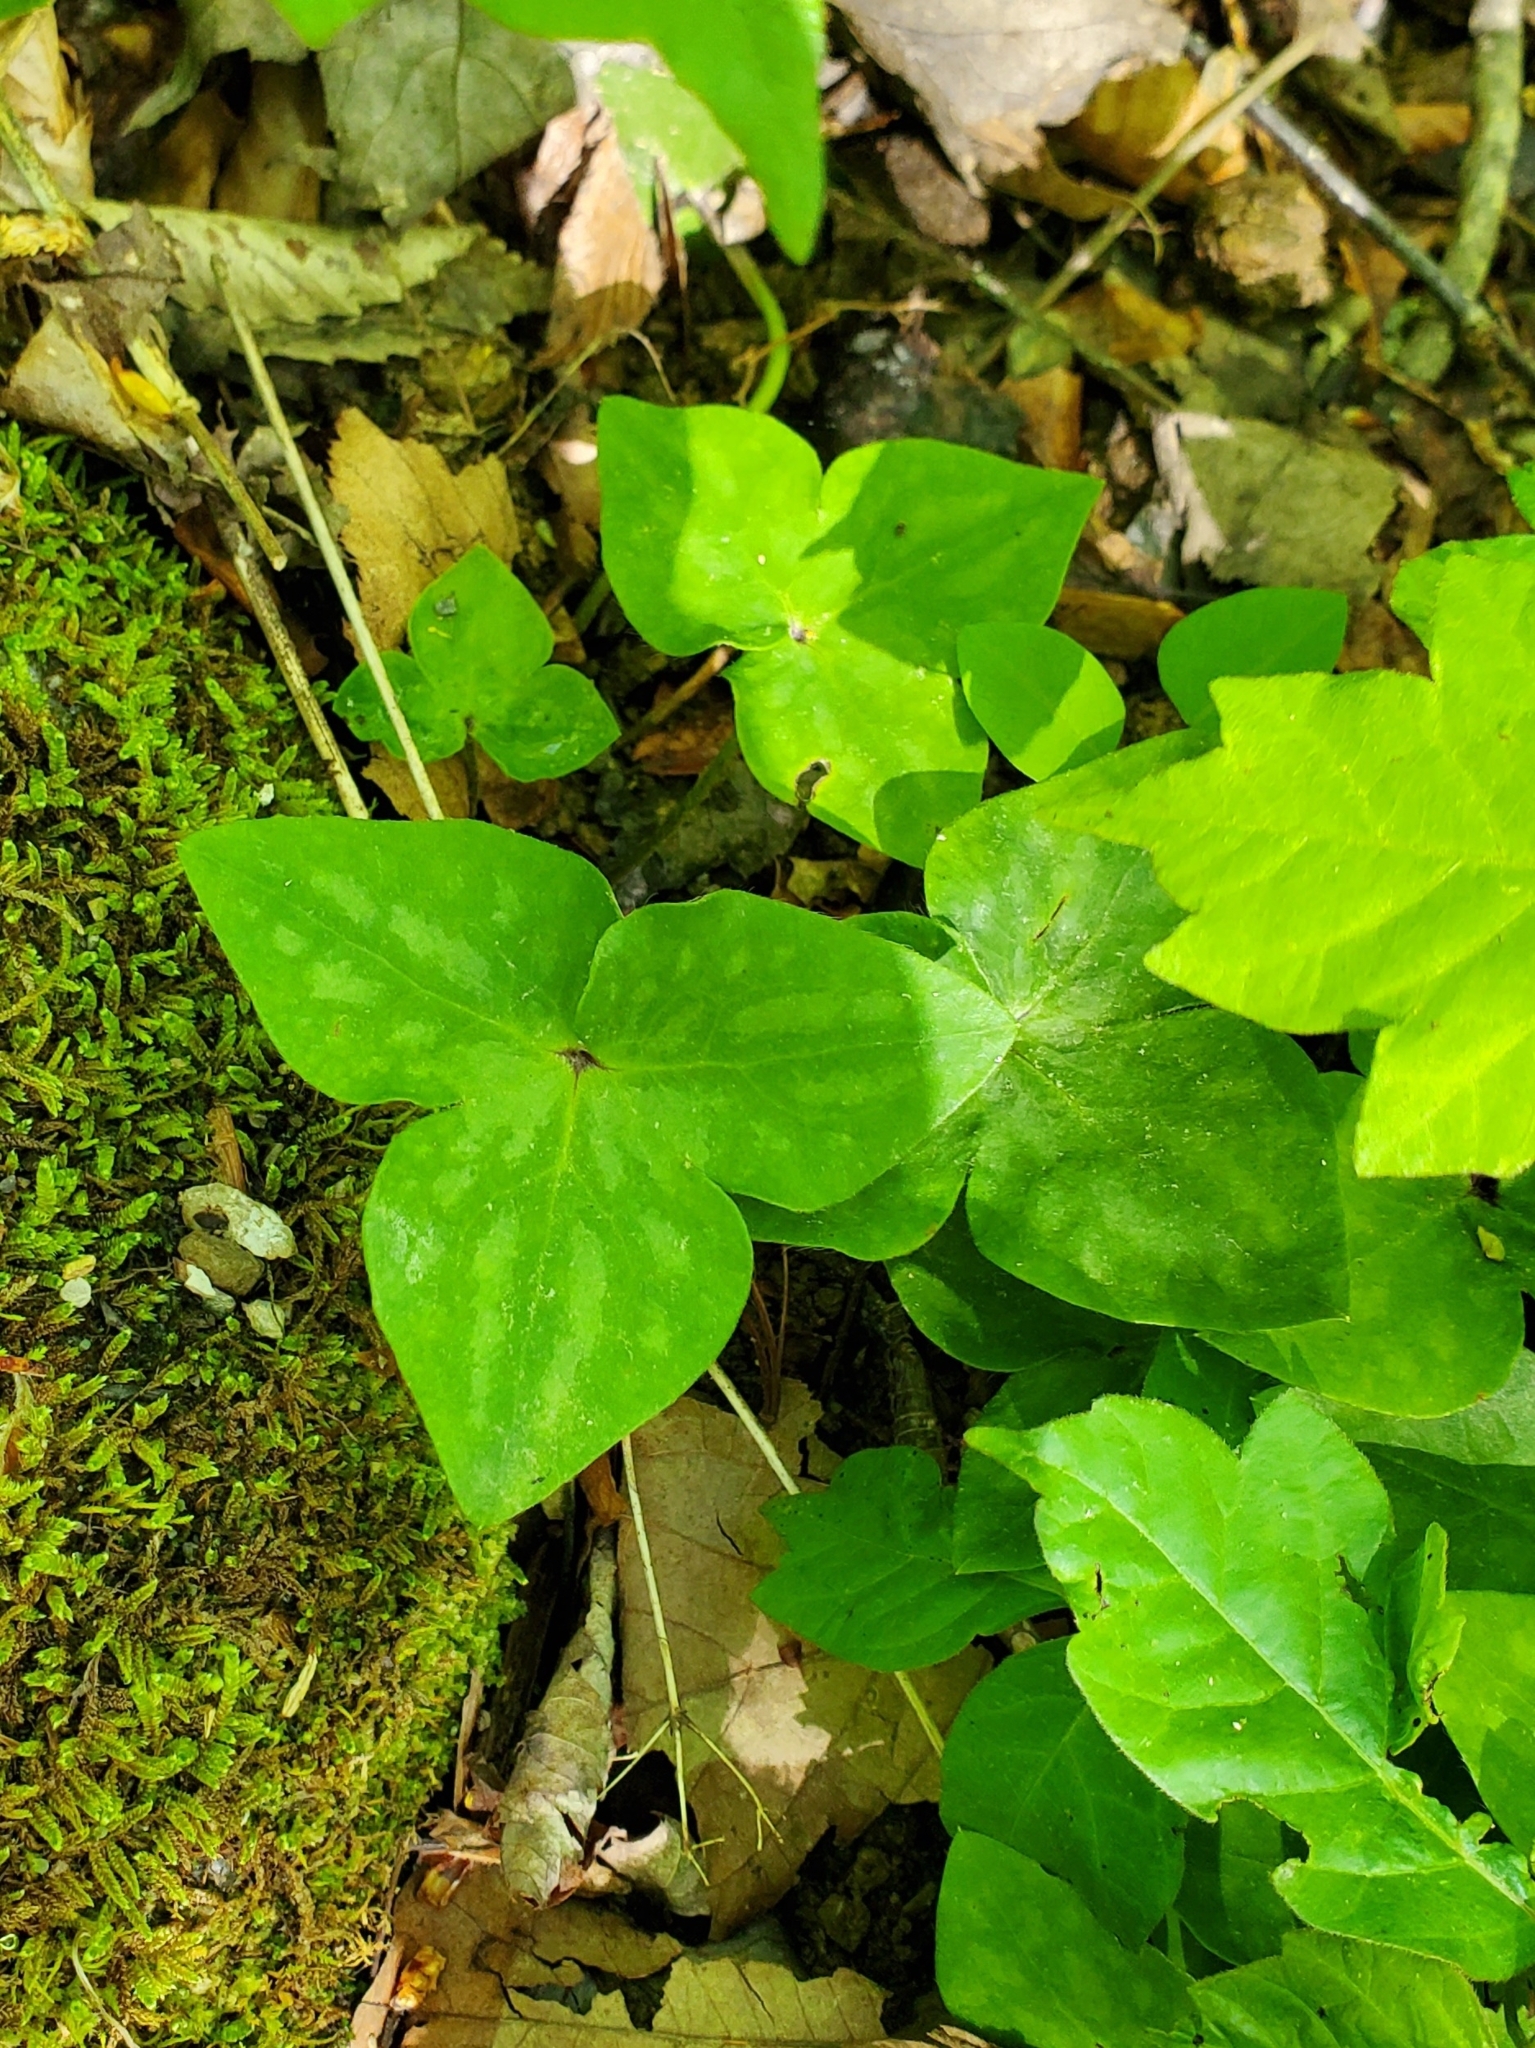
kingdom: Plantae
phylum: Tracheophyta
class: Magnoliopsida
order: Ranunculales
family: Ranunculaceae
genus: Hepatica
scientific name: Hepatica acutiloba
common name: Sharp-lobed hepatica
